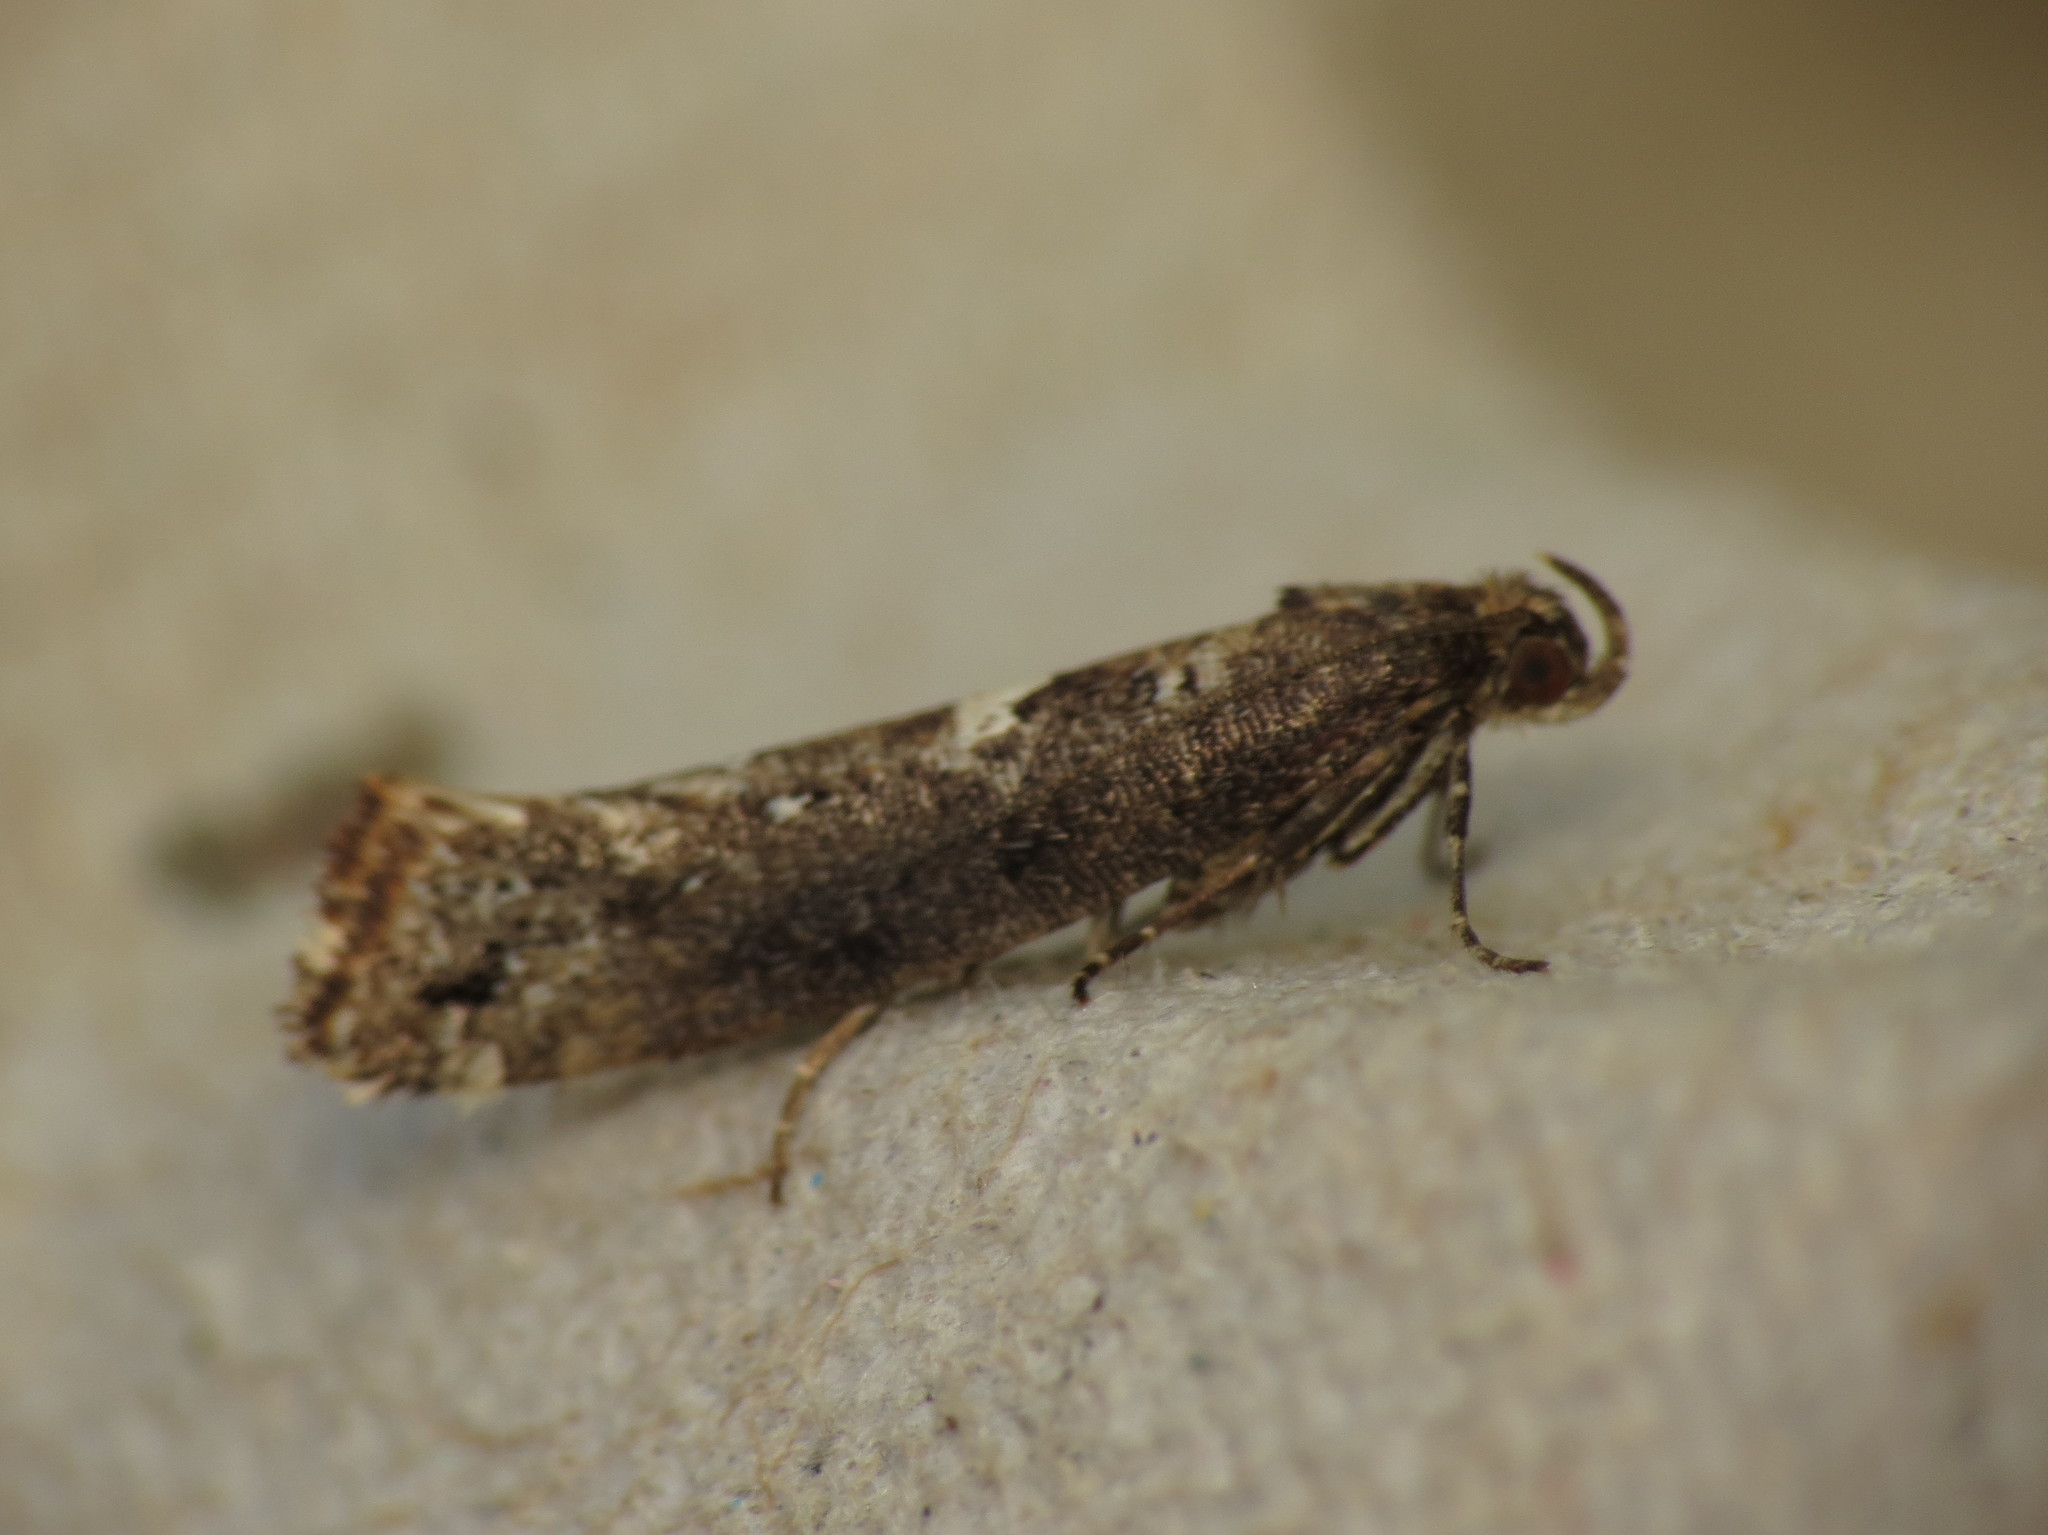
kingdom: Animalia
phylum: Arthropoda
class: Insecta
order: Lepidoptera
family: Glyphipterigidae
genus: Acrolepia
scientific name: Acrolepia assectella
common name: Onion leaf miner
